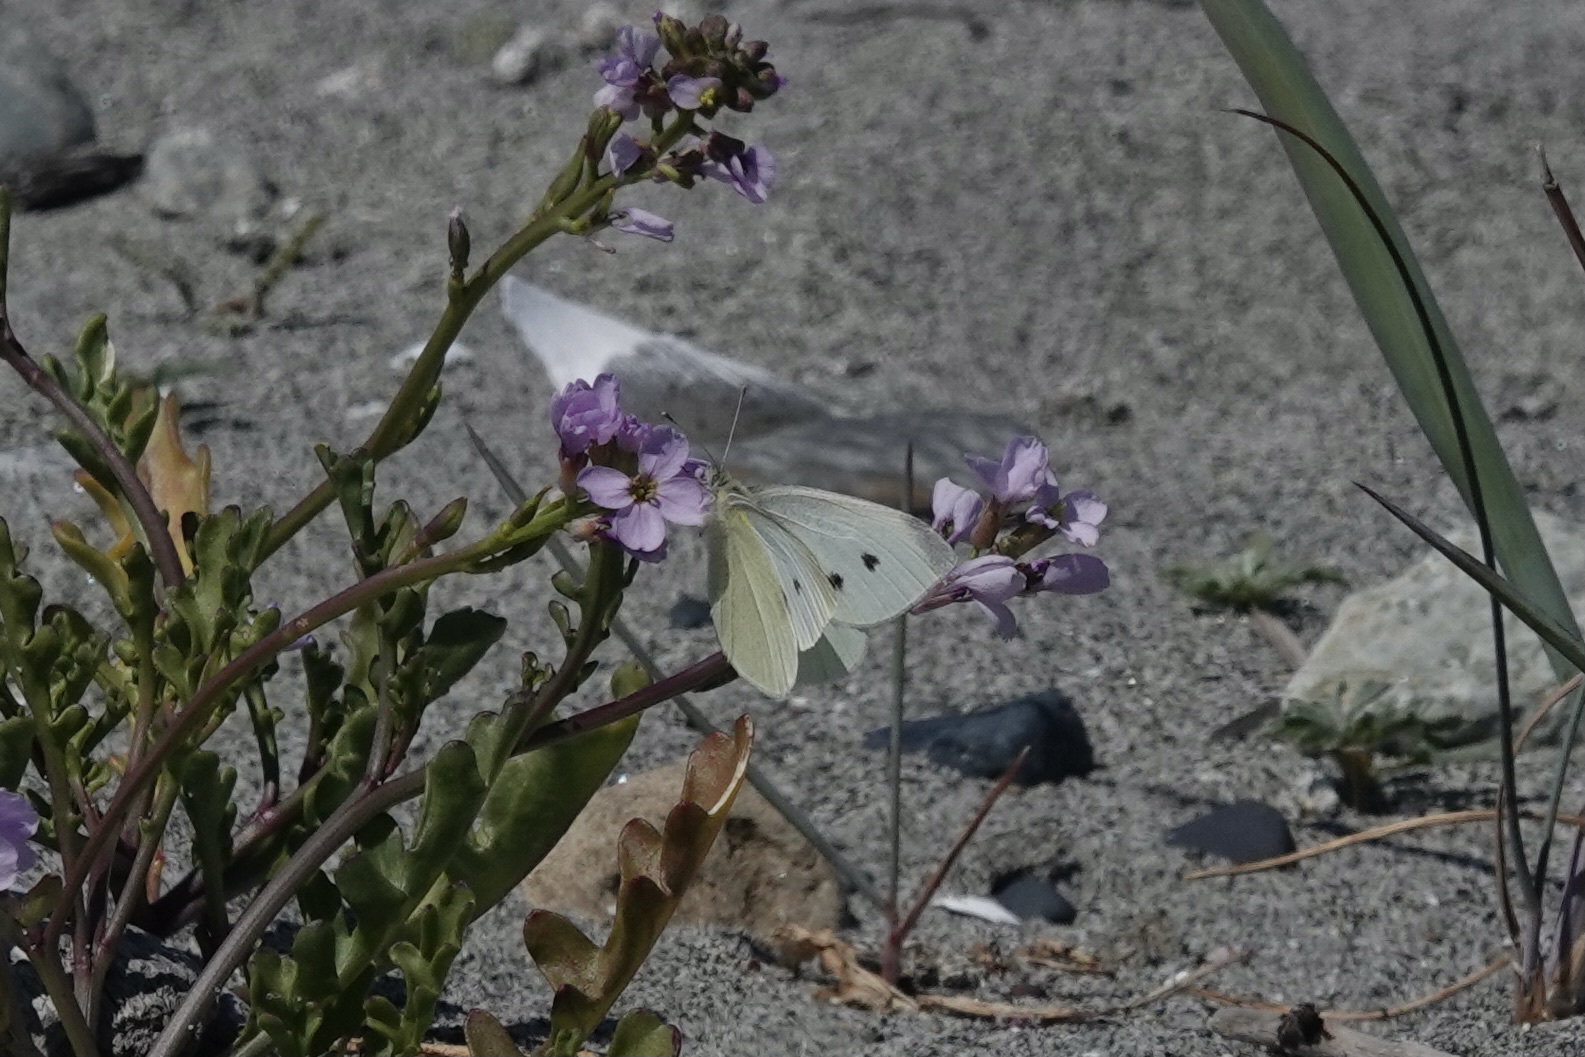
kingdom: Animalia
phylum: Arthropoda
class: Insecta
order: Lepidoptera
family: Pieridae
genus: Pieris
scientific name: Pieris rapae
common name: Small white
